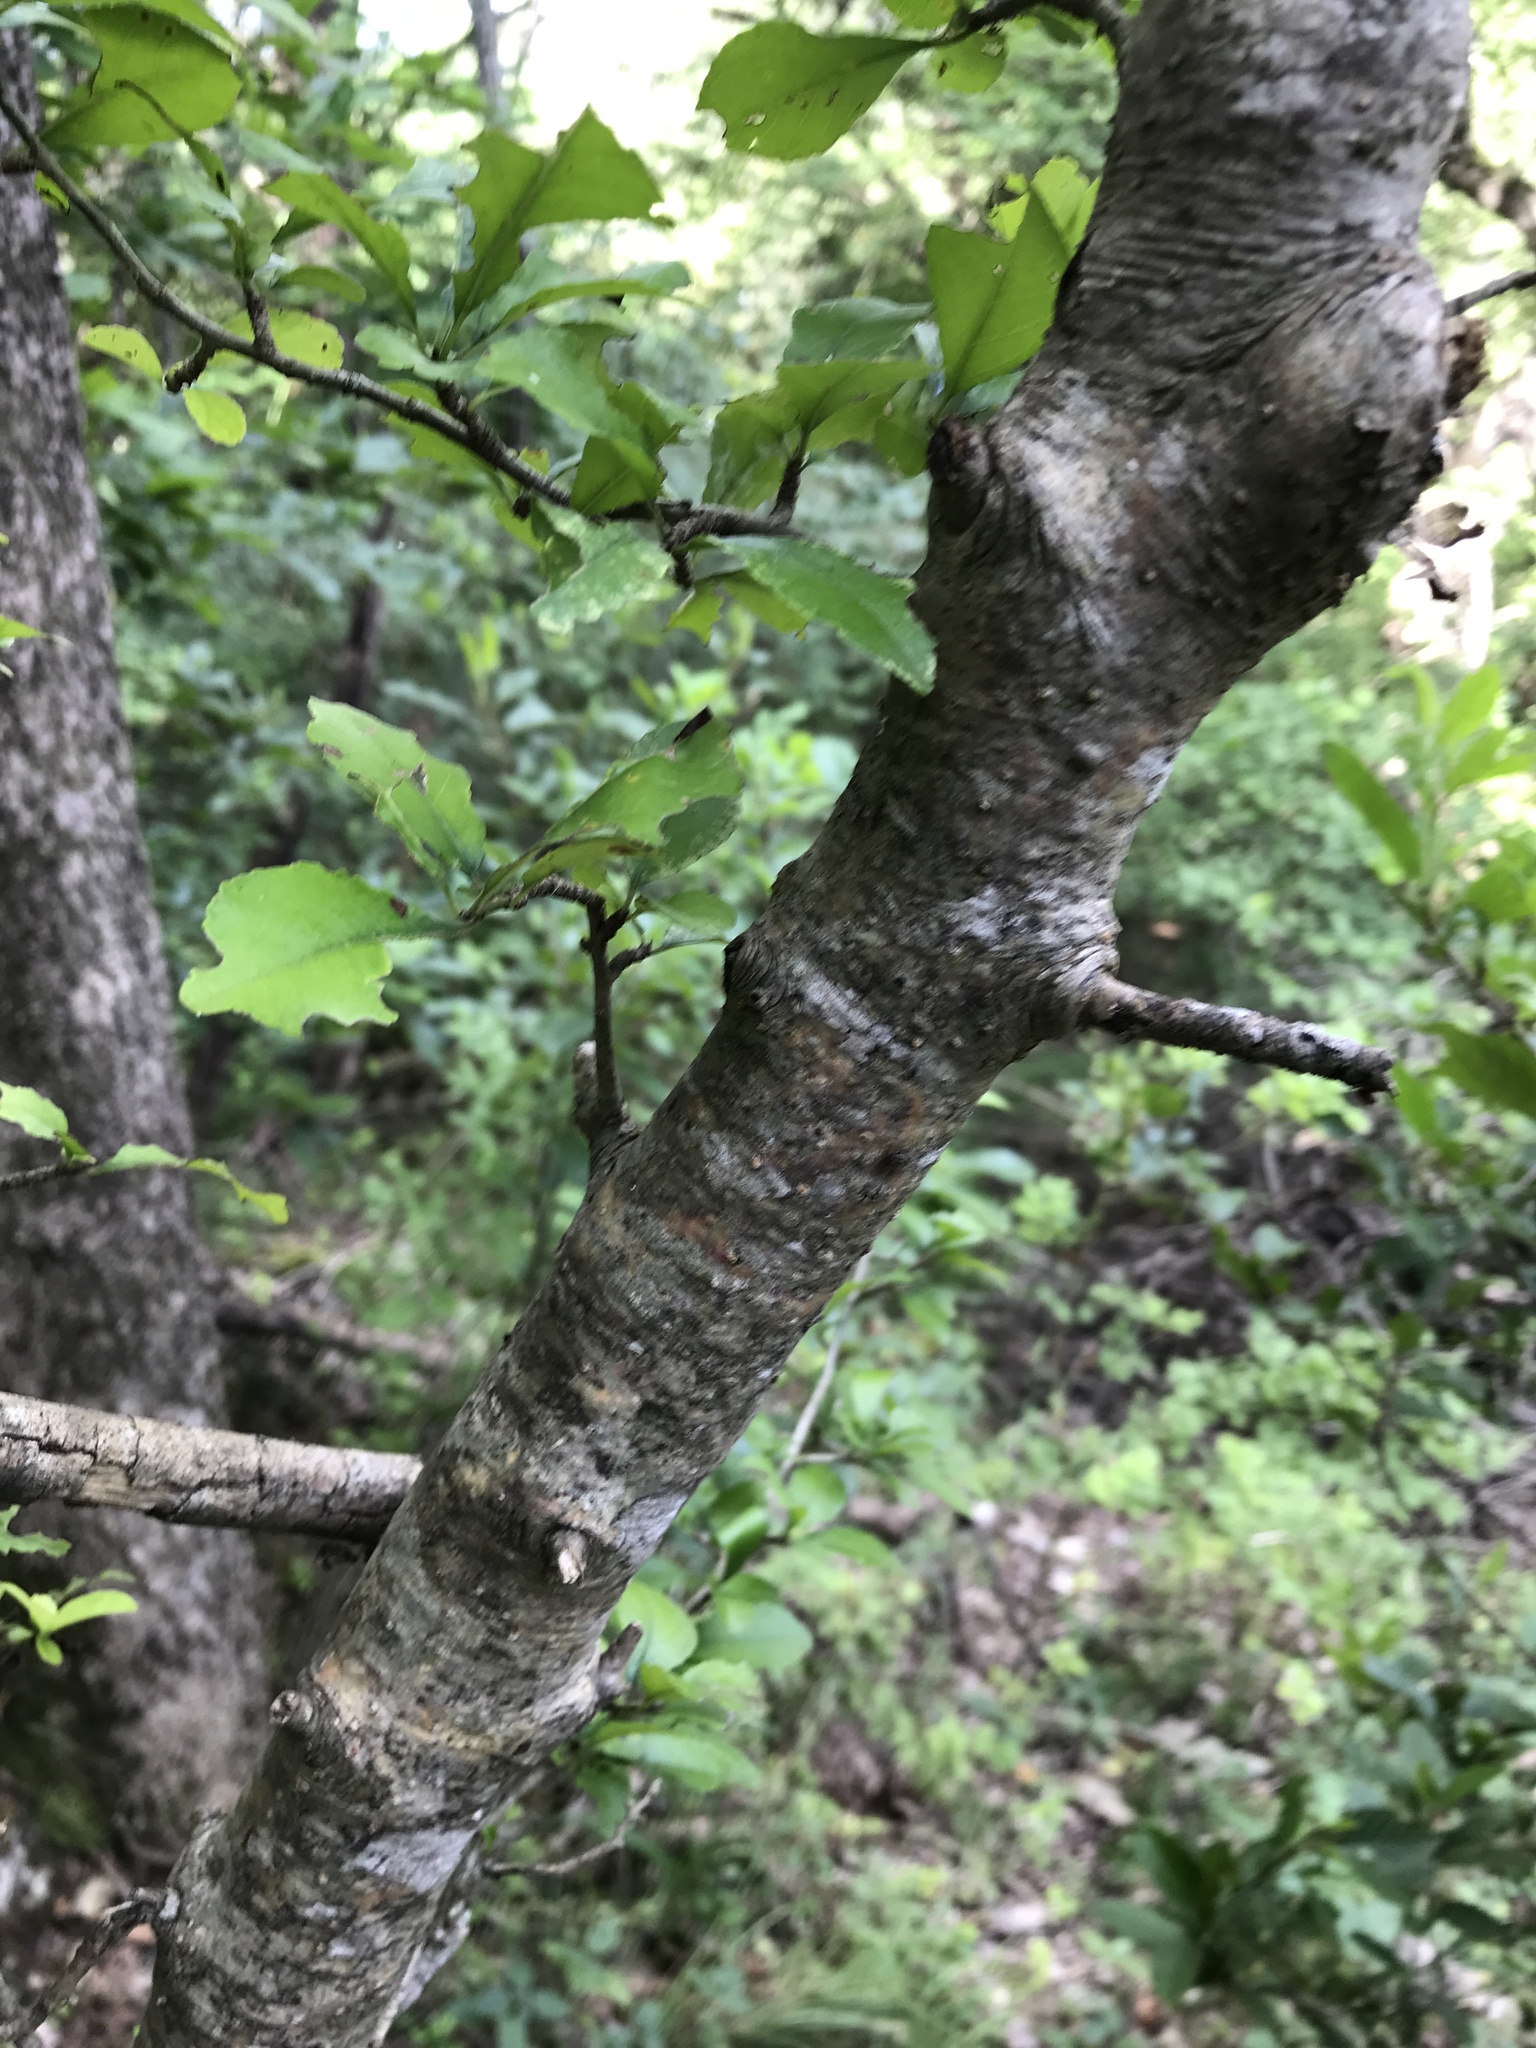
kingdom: Plantae
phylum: Tracheophyta
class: Magnoliopsida
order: Aquifoliales
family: Aquifoliaceae
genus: Ilex
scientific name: Ilex decidua
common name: Possum-haw
